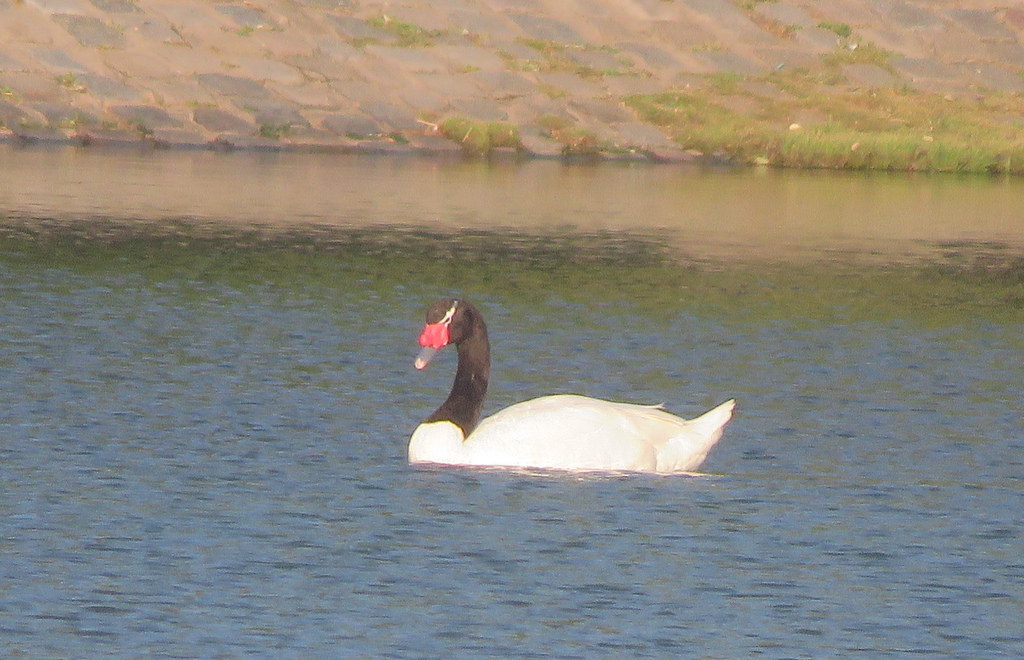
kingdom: Animalia
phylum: Chordata
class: Aves
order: Anseriformes
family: Anatidae
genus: Cygnus
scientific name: Cygnus melancoryphus
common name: Black-necked swan
